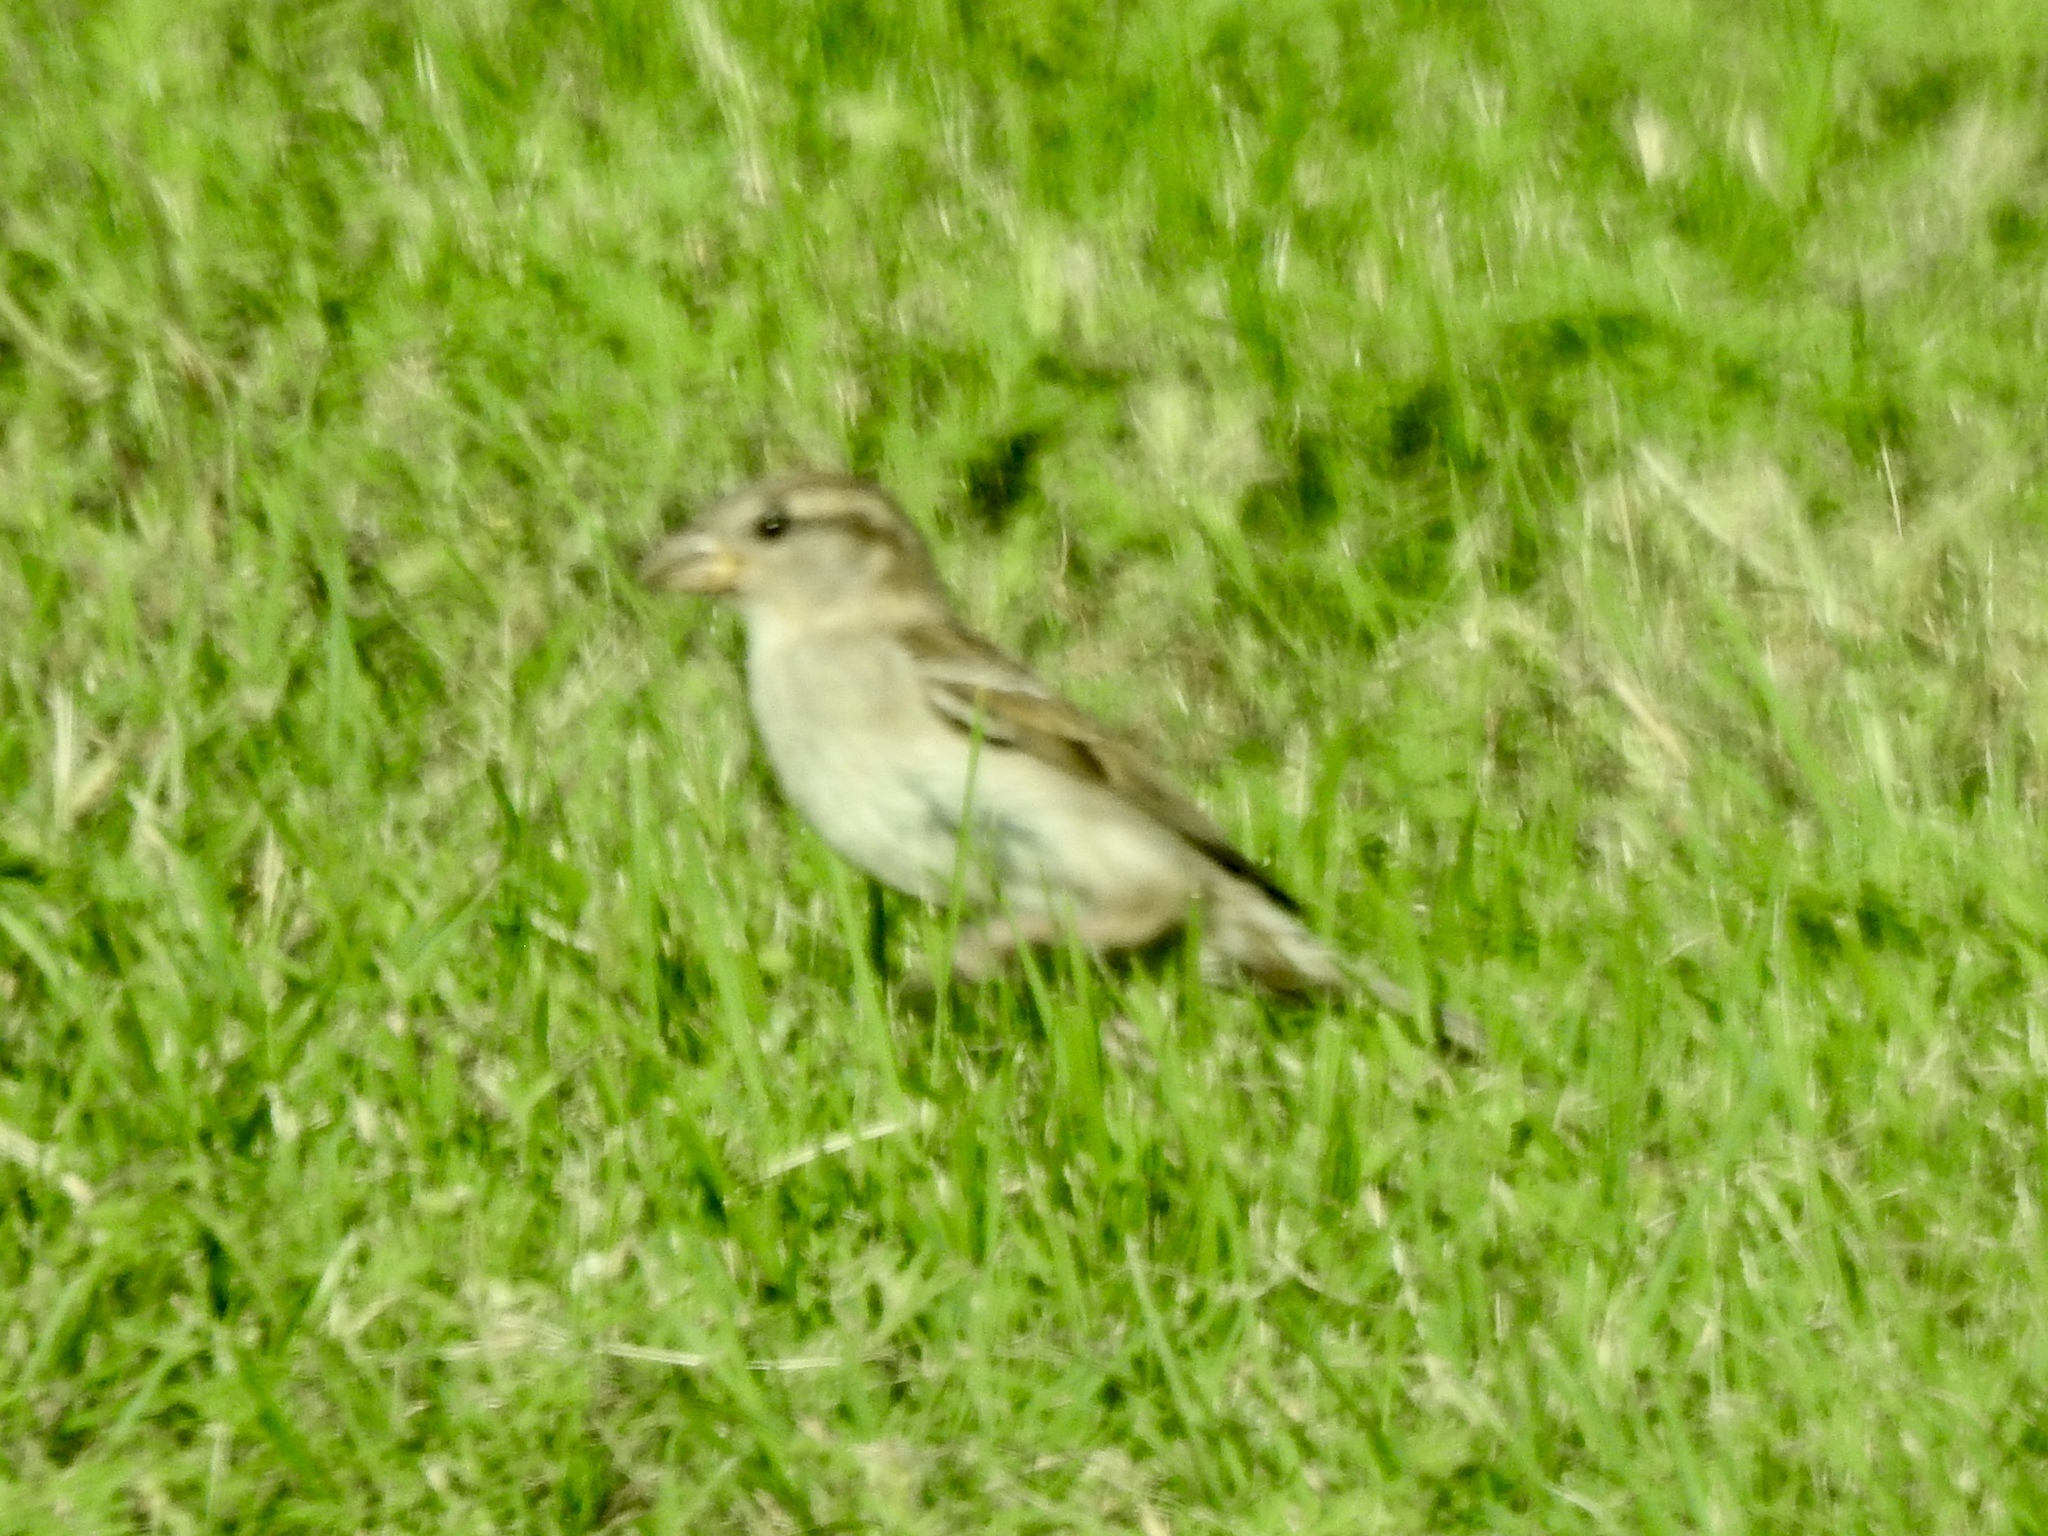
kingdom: Animalia
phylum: Chordata
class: Aves
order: Passeriformes
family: Passeridae
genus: Passer
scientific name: Passer domesticus
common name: House sparrow
